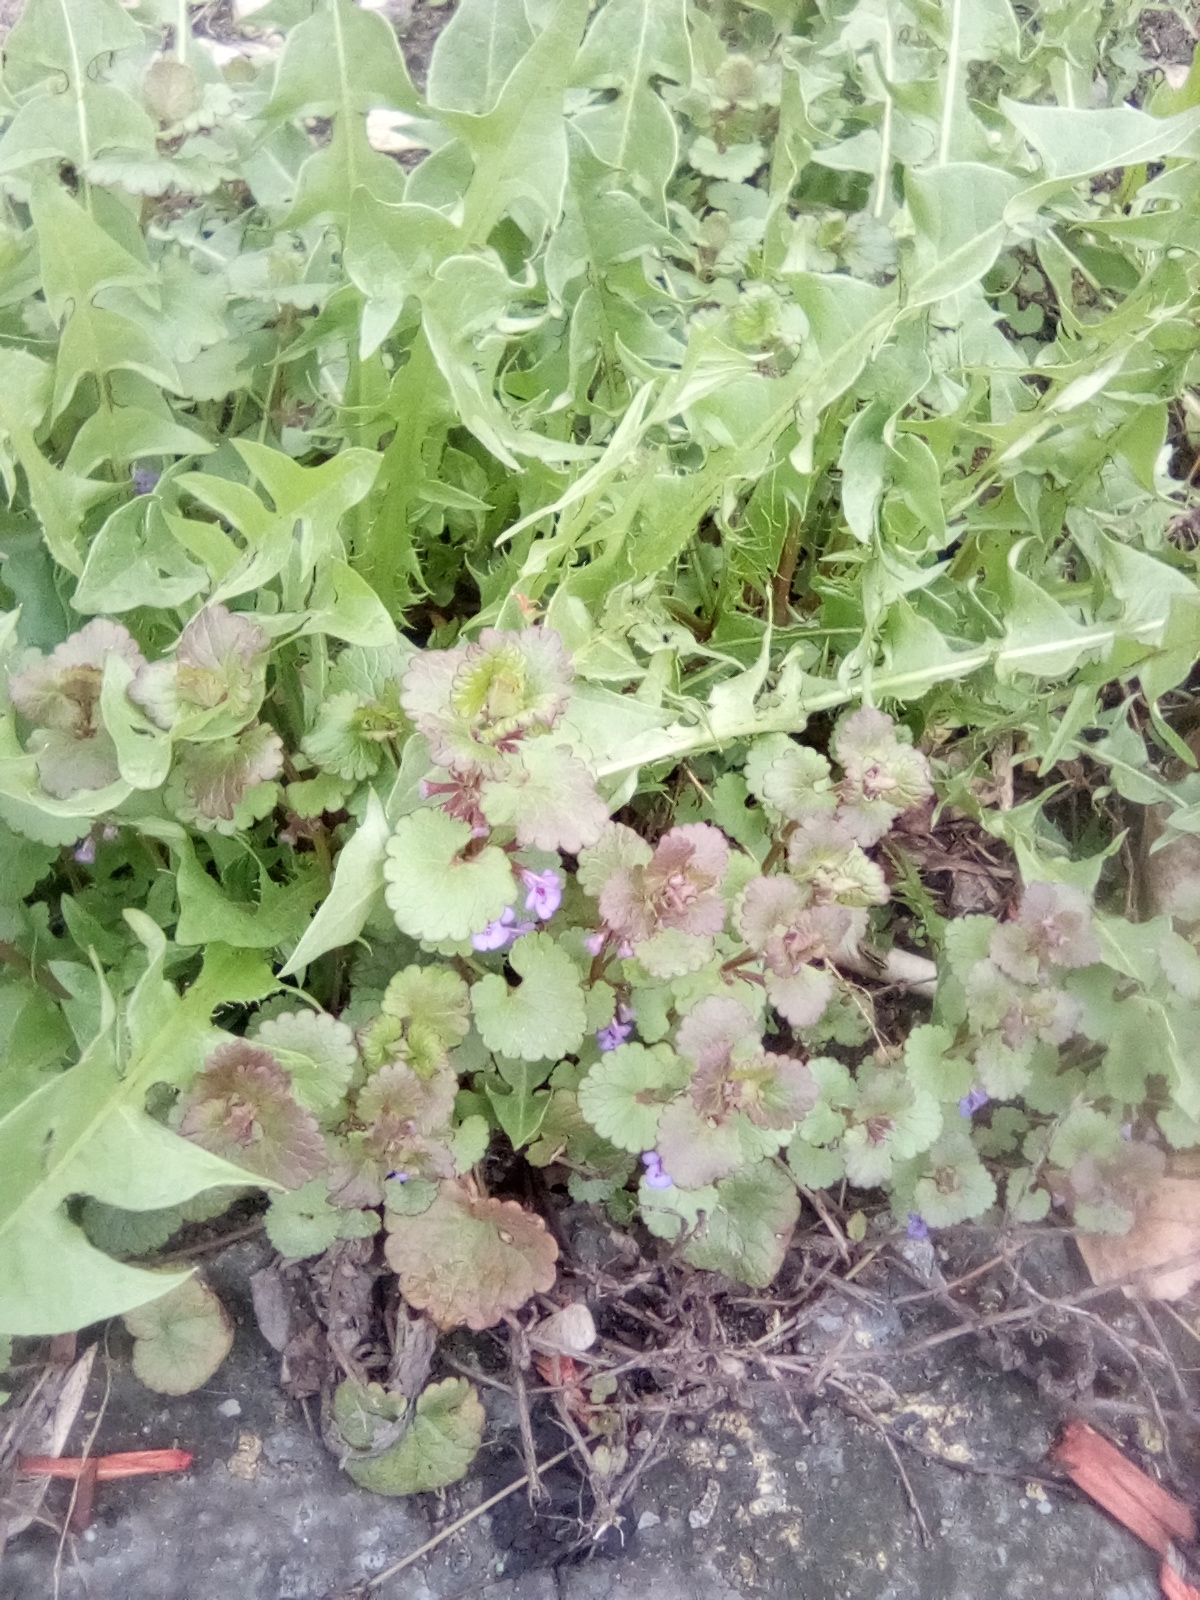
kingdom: Plantae
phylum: Tracheophyta
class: Magnoliopsida
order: Lamiales
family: Lamiaceae
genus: Glechoma
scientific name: Glechoma hederacea
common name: Ground ivy
